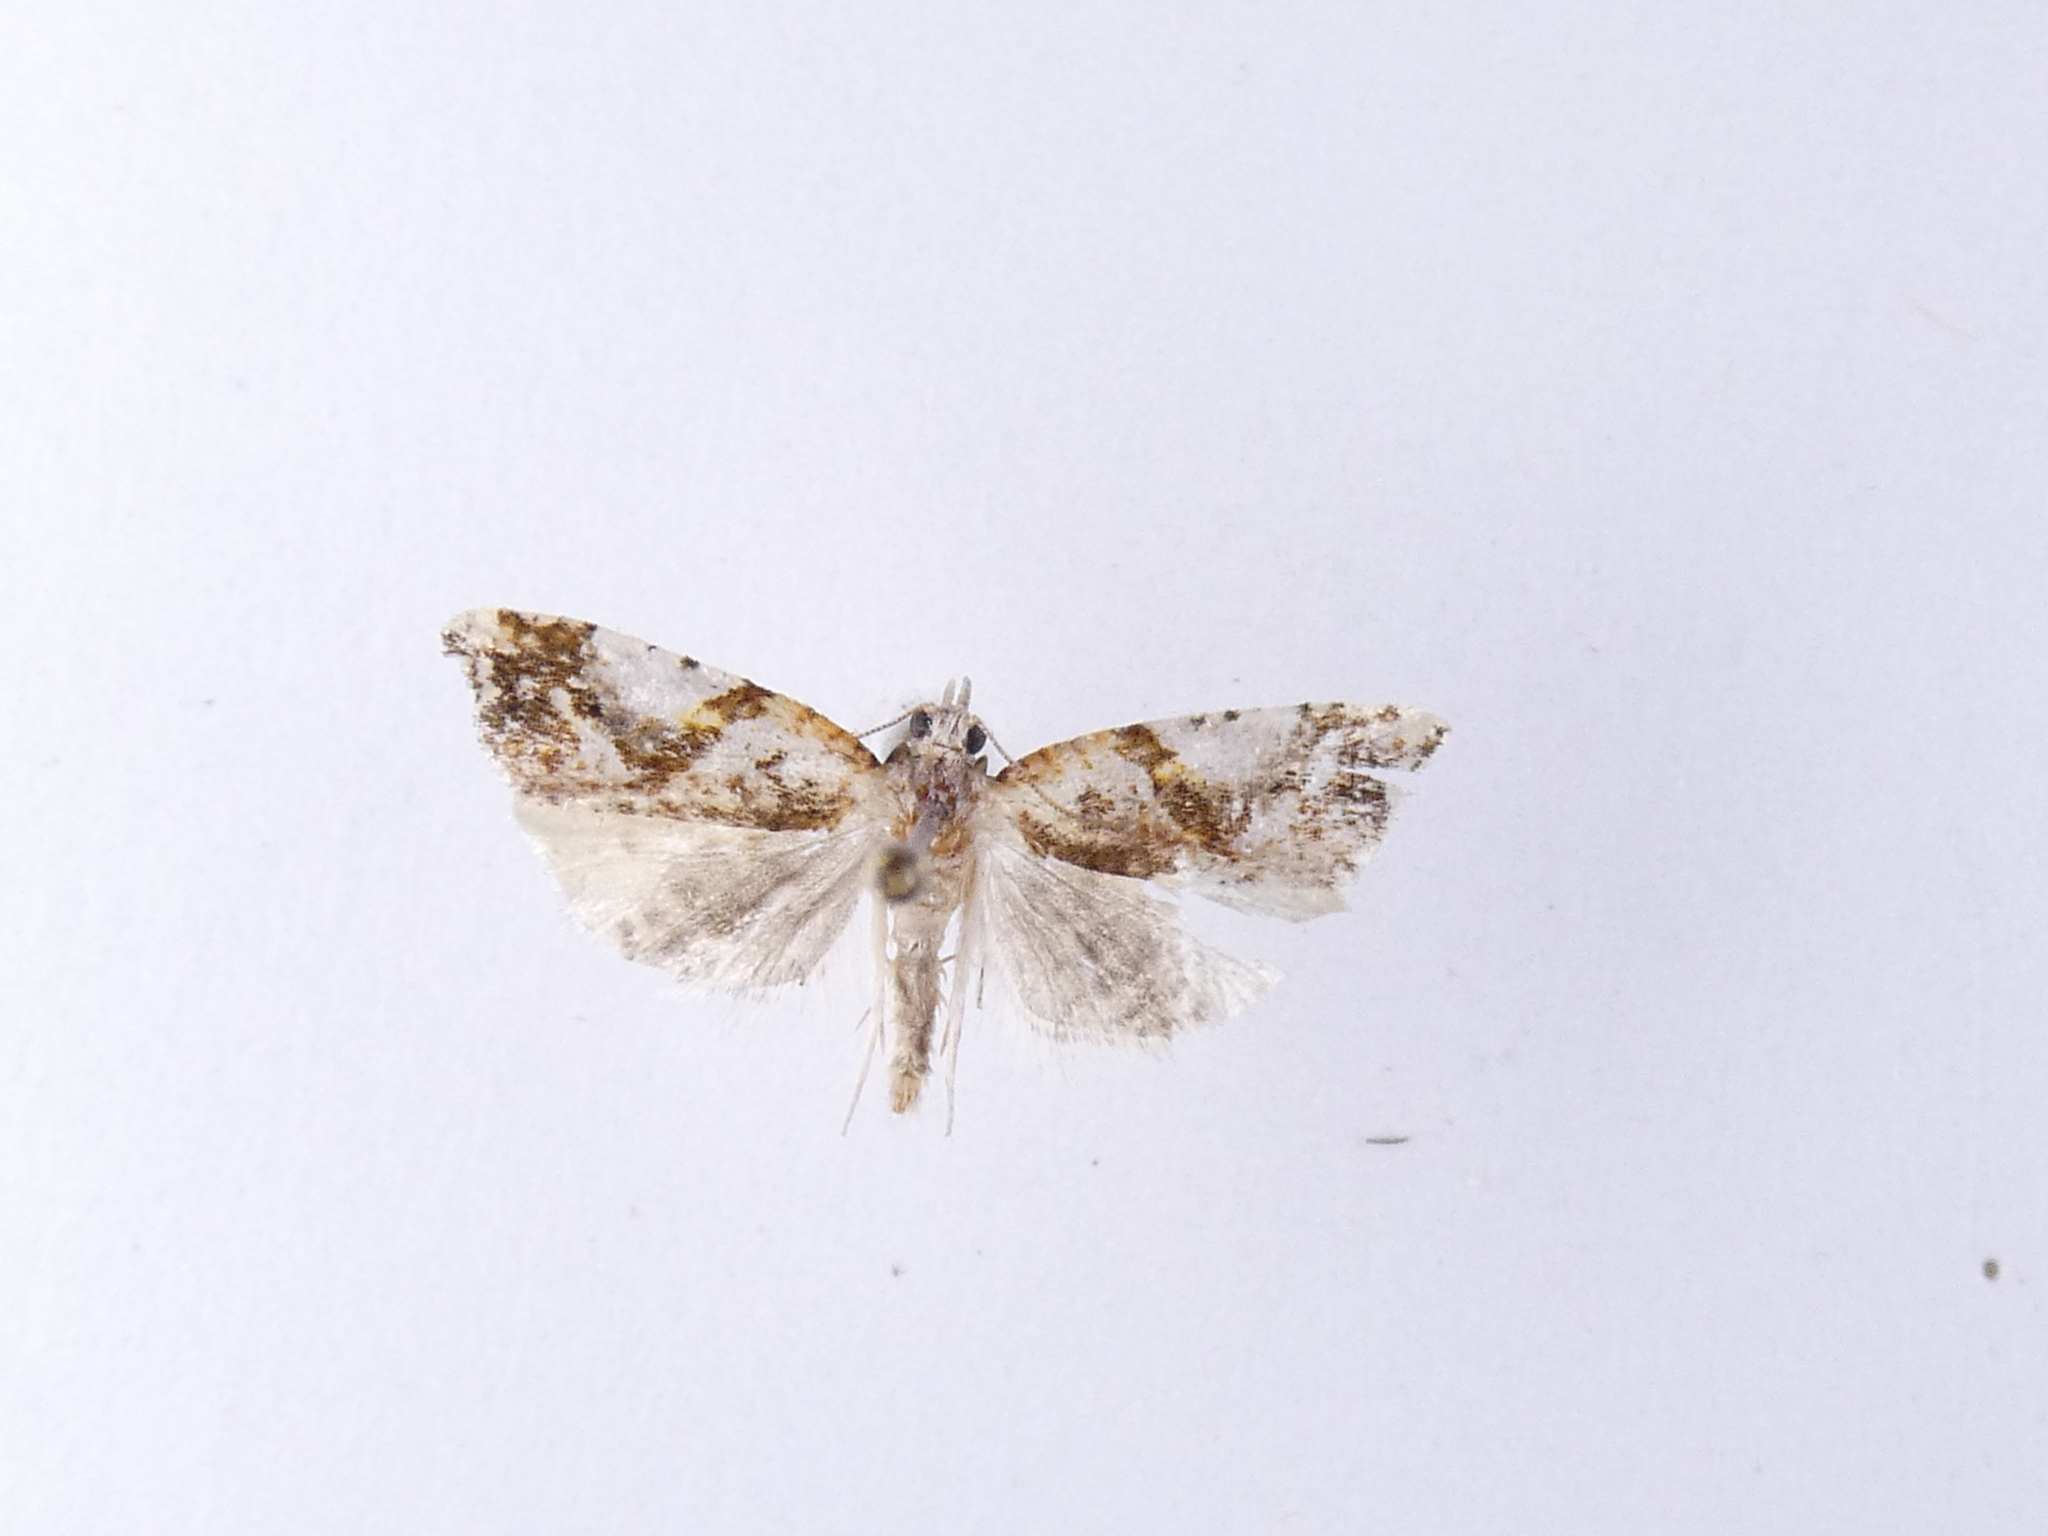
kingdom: Animalia
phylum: Arthropoda
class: Insecta
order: Lepidoptera
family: Tortricidae
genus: Pyrgotis
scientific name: Pyrgotis plagiatana
